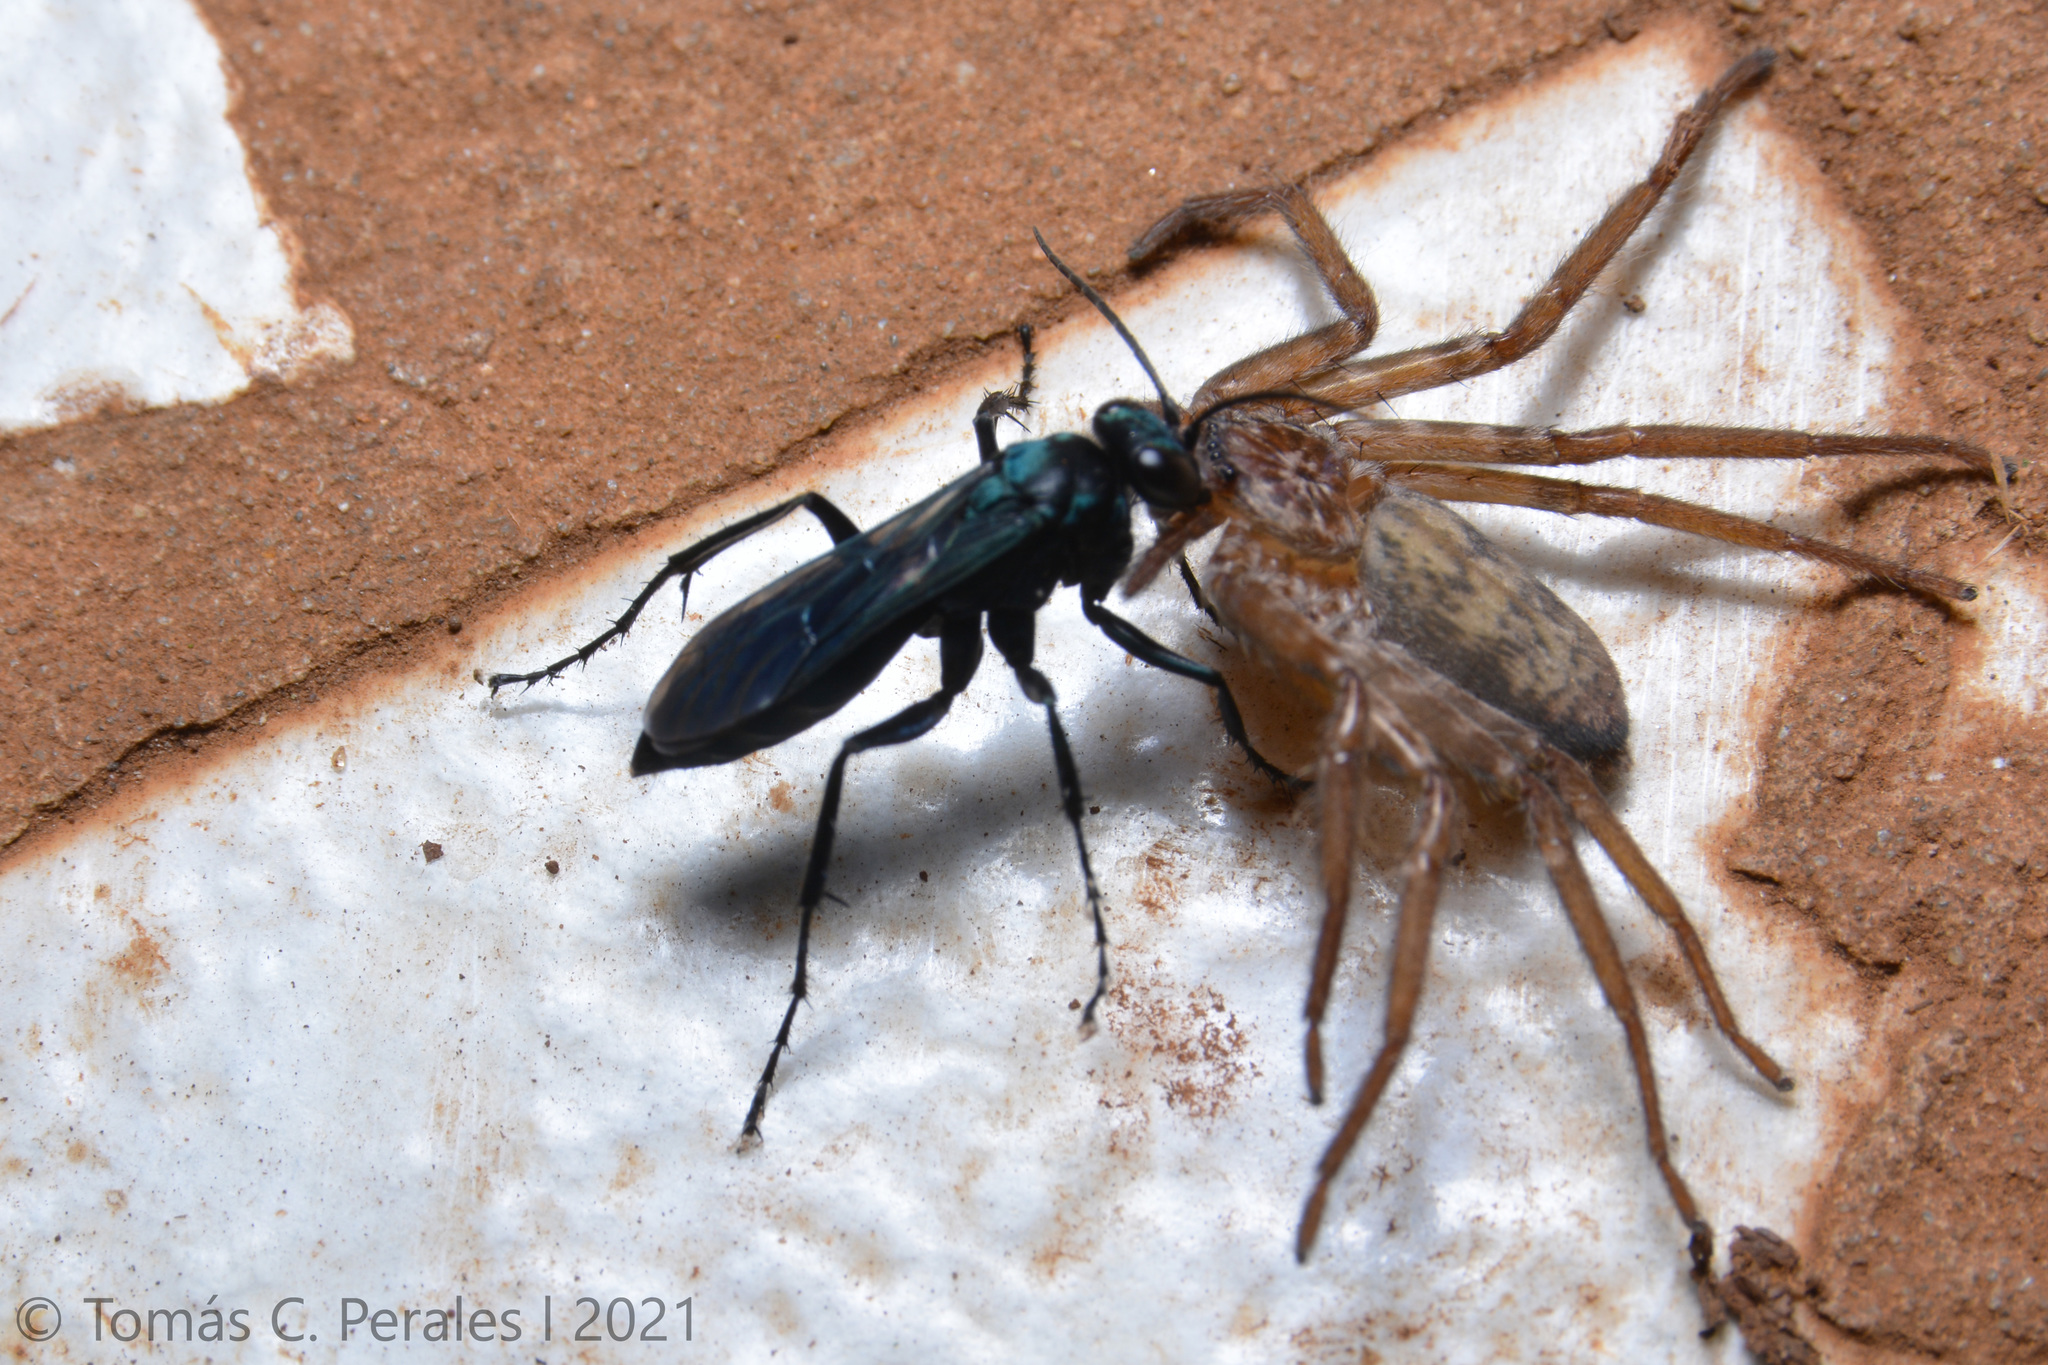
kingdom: Animalia
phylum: Arthropoda
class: Arachnida
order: Araneae
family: Selenopidae
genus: Selenops
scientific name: Selenops
